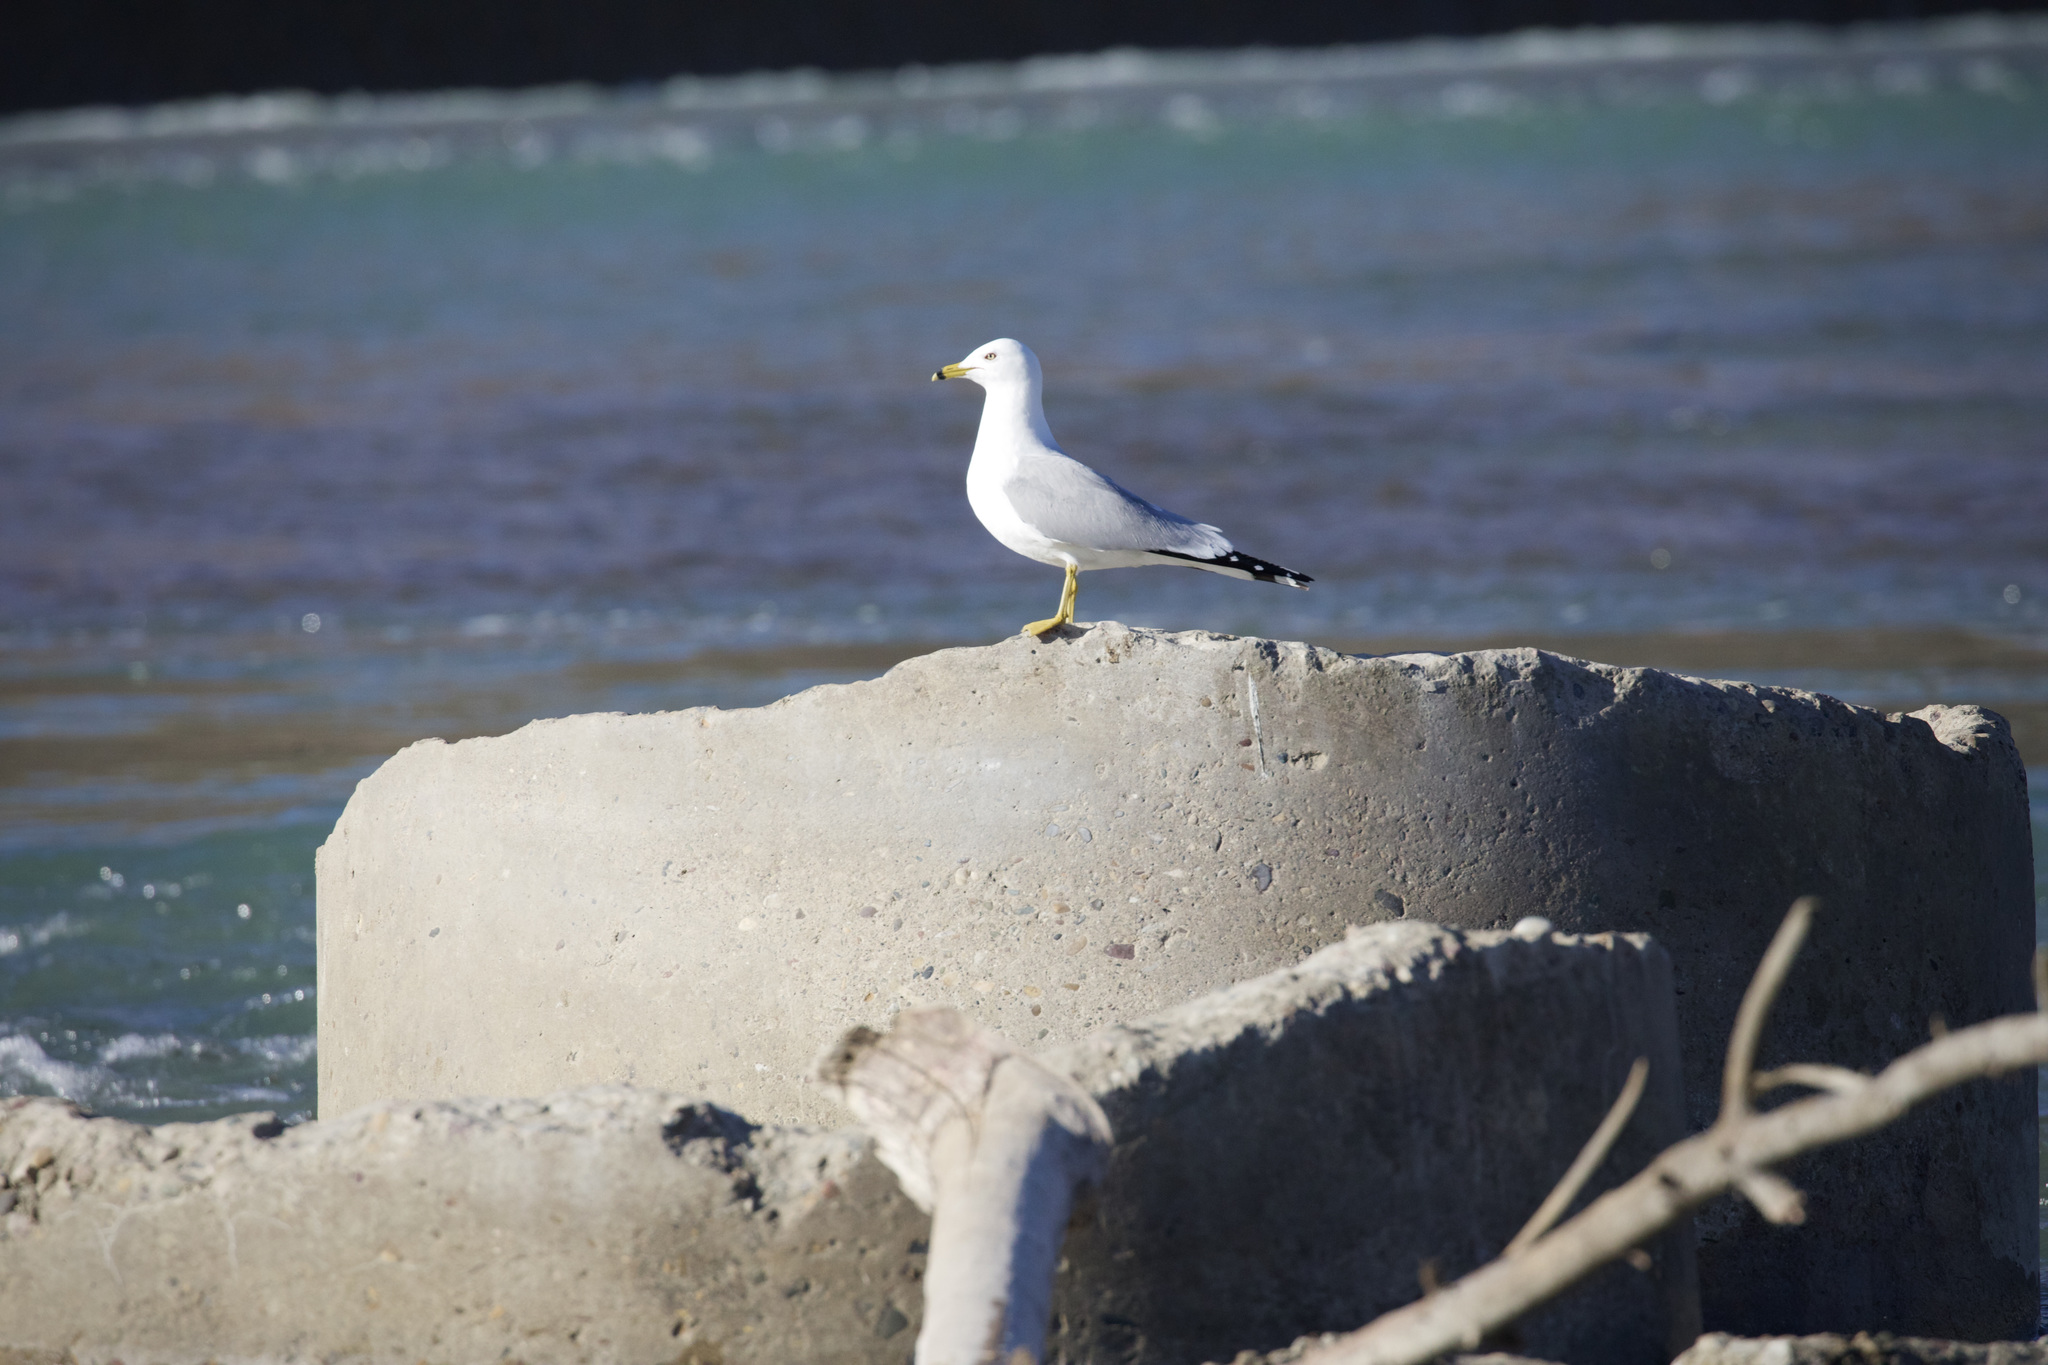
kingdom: Animalia
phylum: Chordata
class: Aves
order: Charadriiformes
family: Laridae
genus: Larus
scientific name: Larus delawarensis
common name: Ring-billed gull
